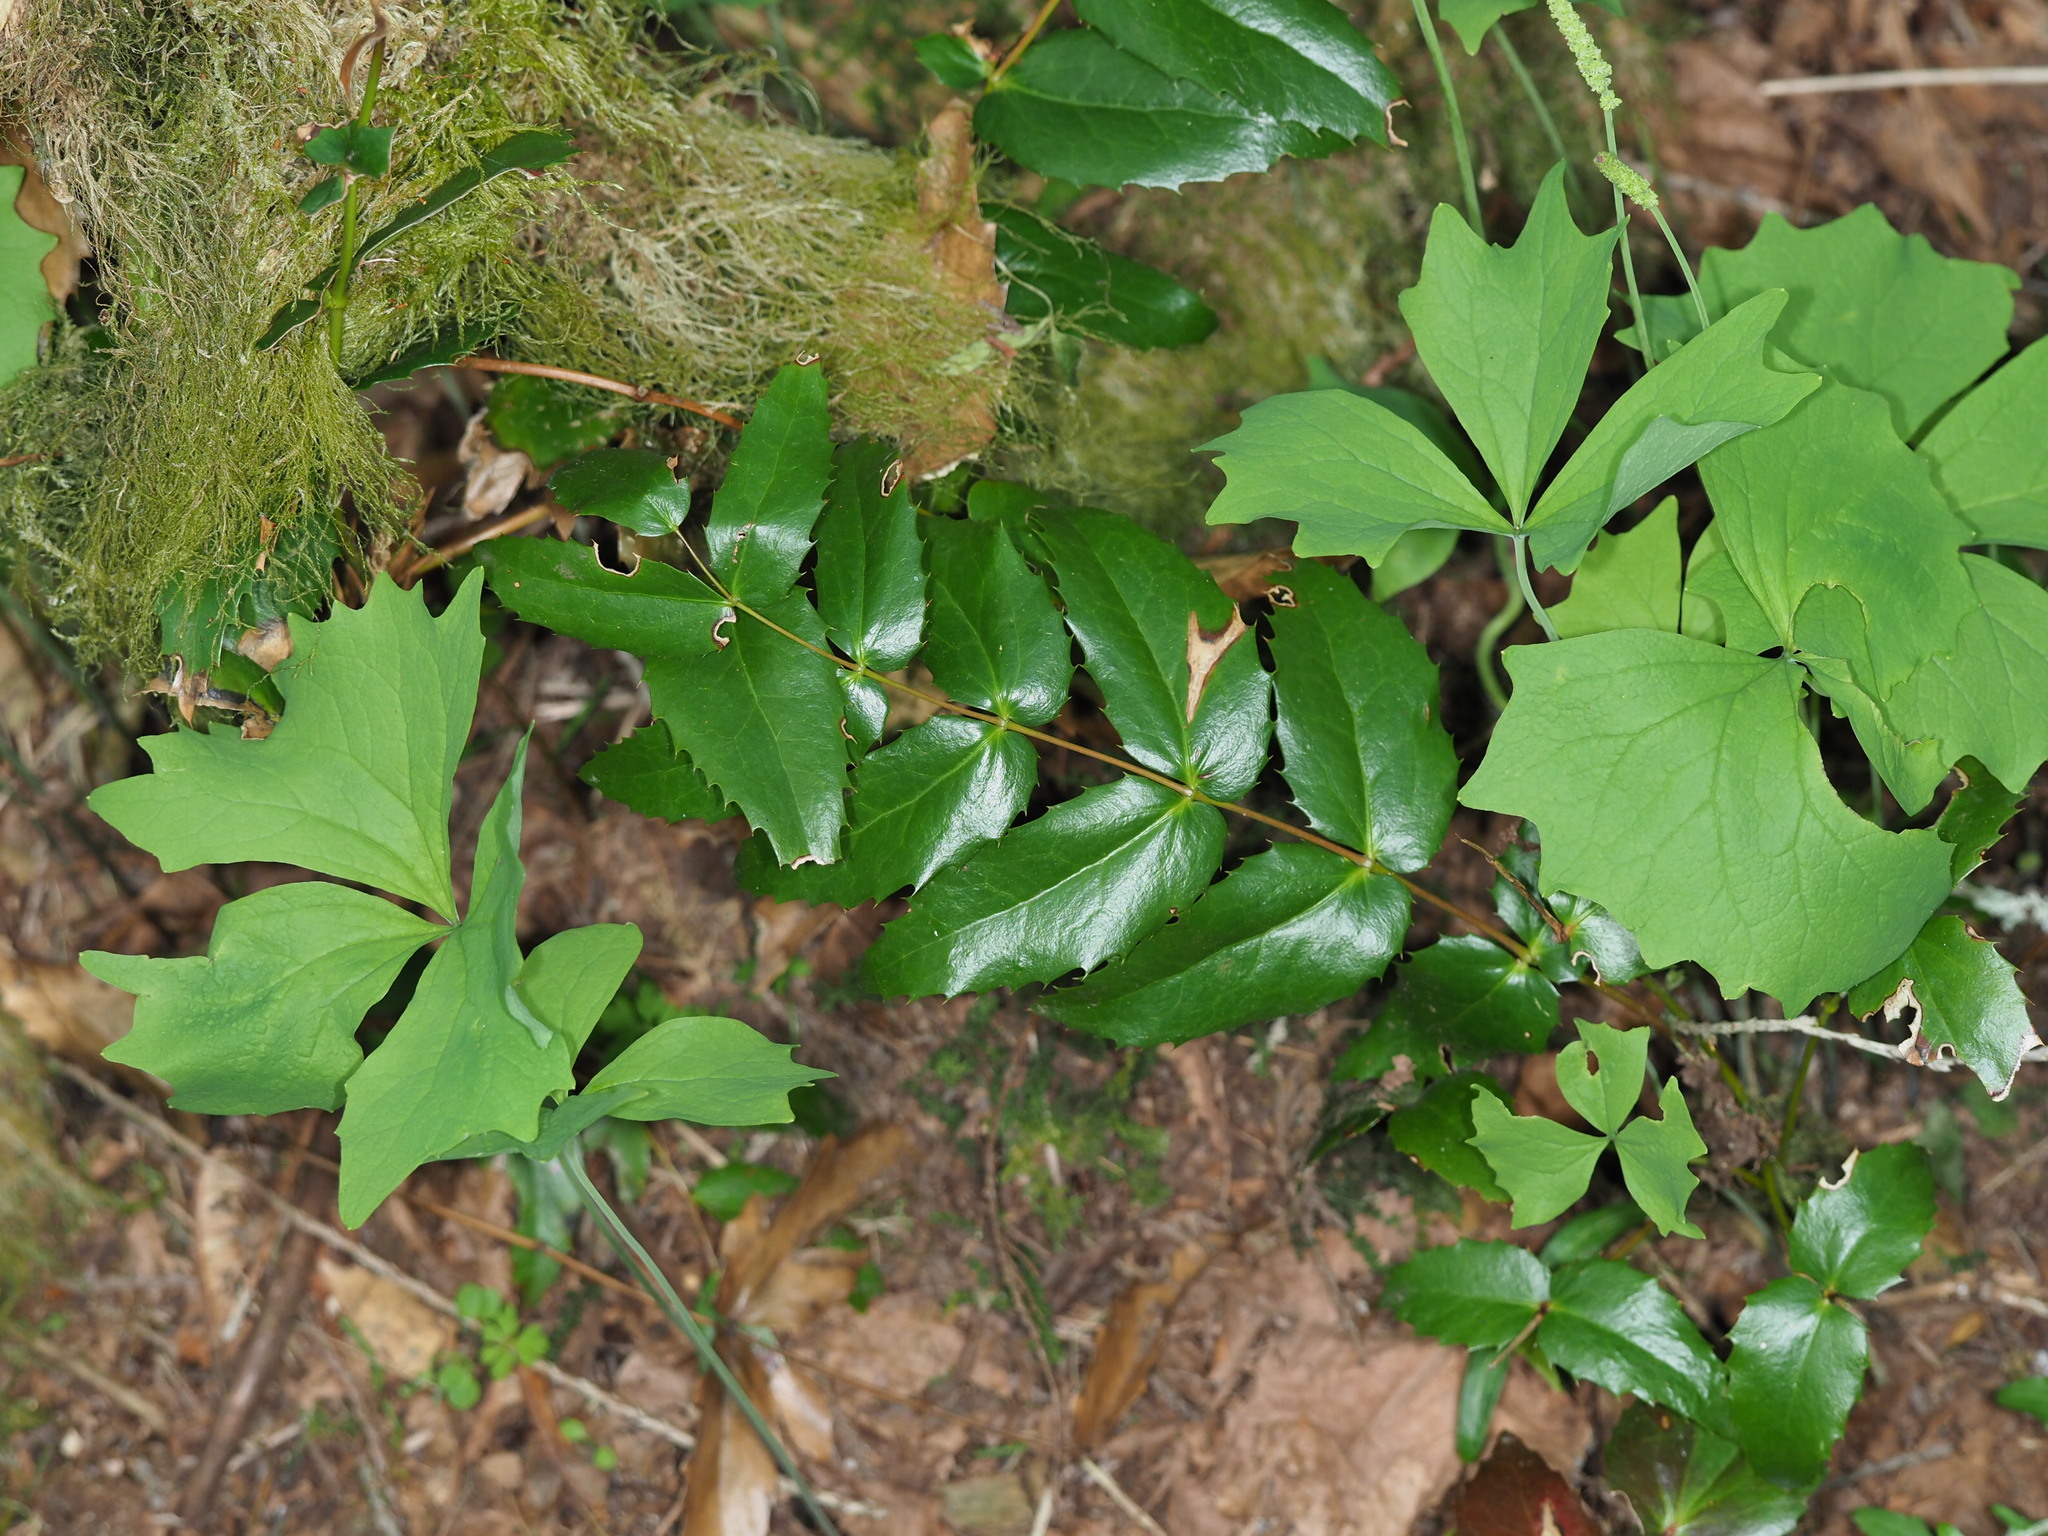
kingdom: Plantae
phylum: Tracheophyta
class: Magnoliopsida
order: Ranunculales
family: Berberidaceae
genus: Mahonia
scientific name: Mahonia nervosa
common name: Cascade oregon-grape
